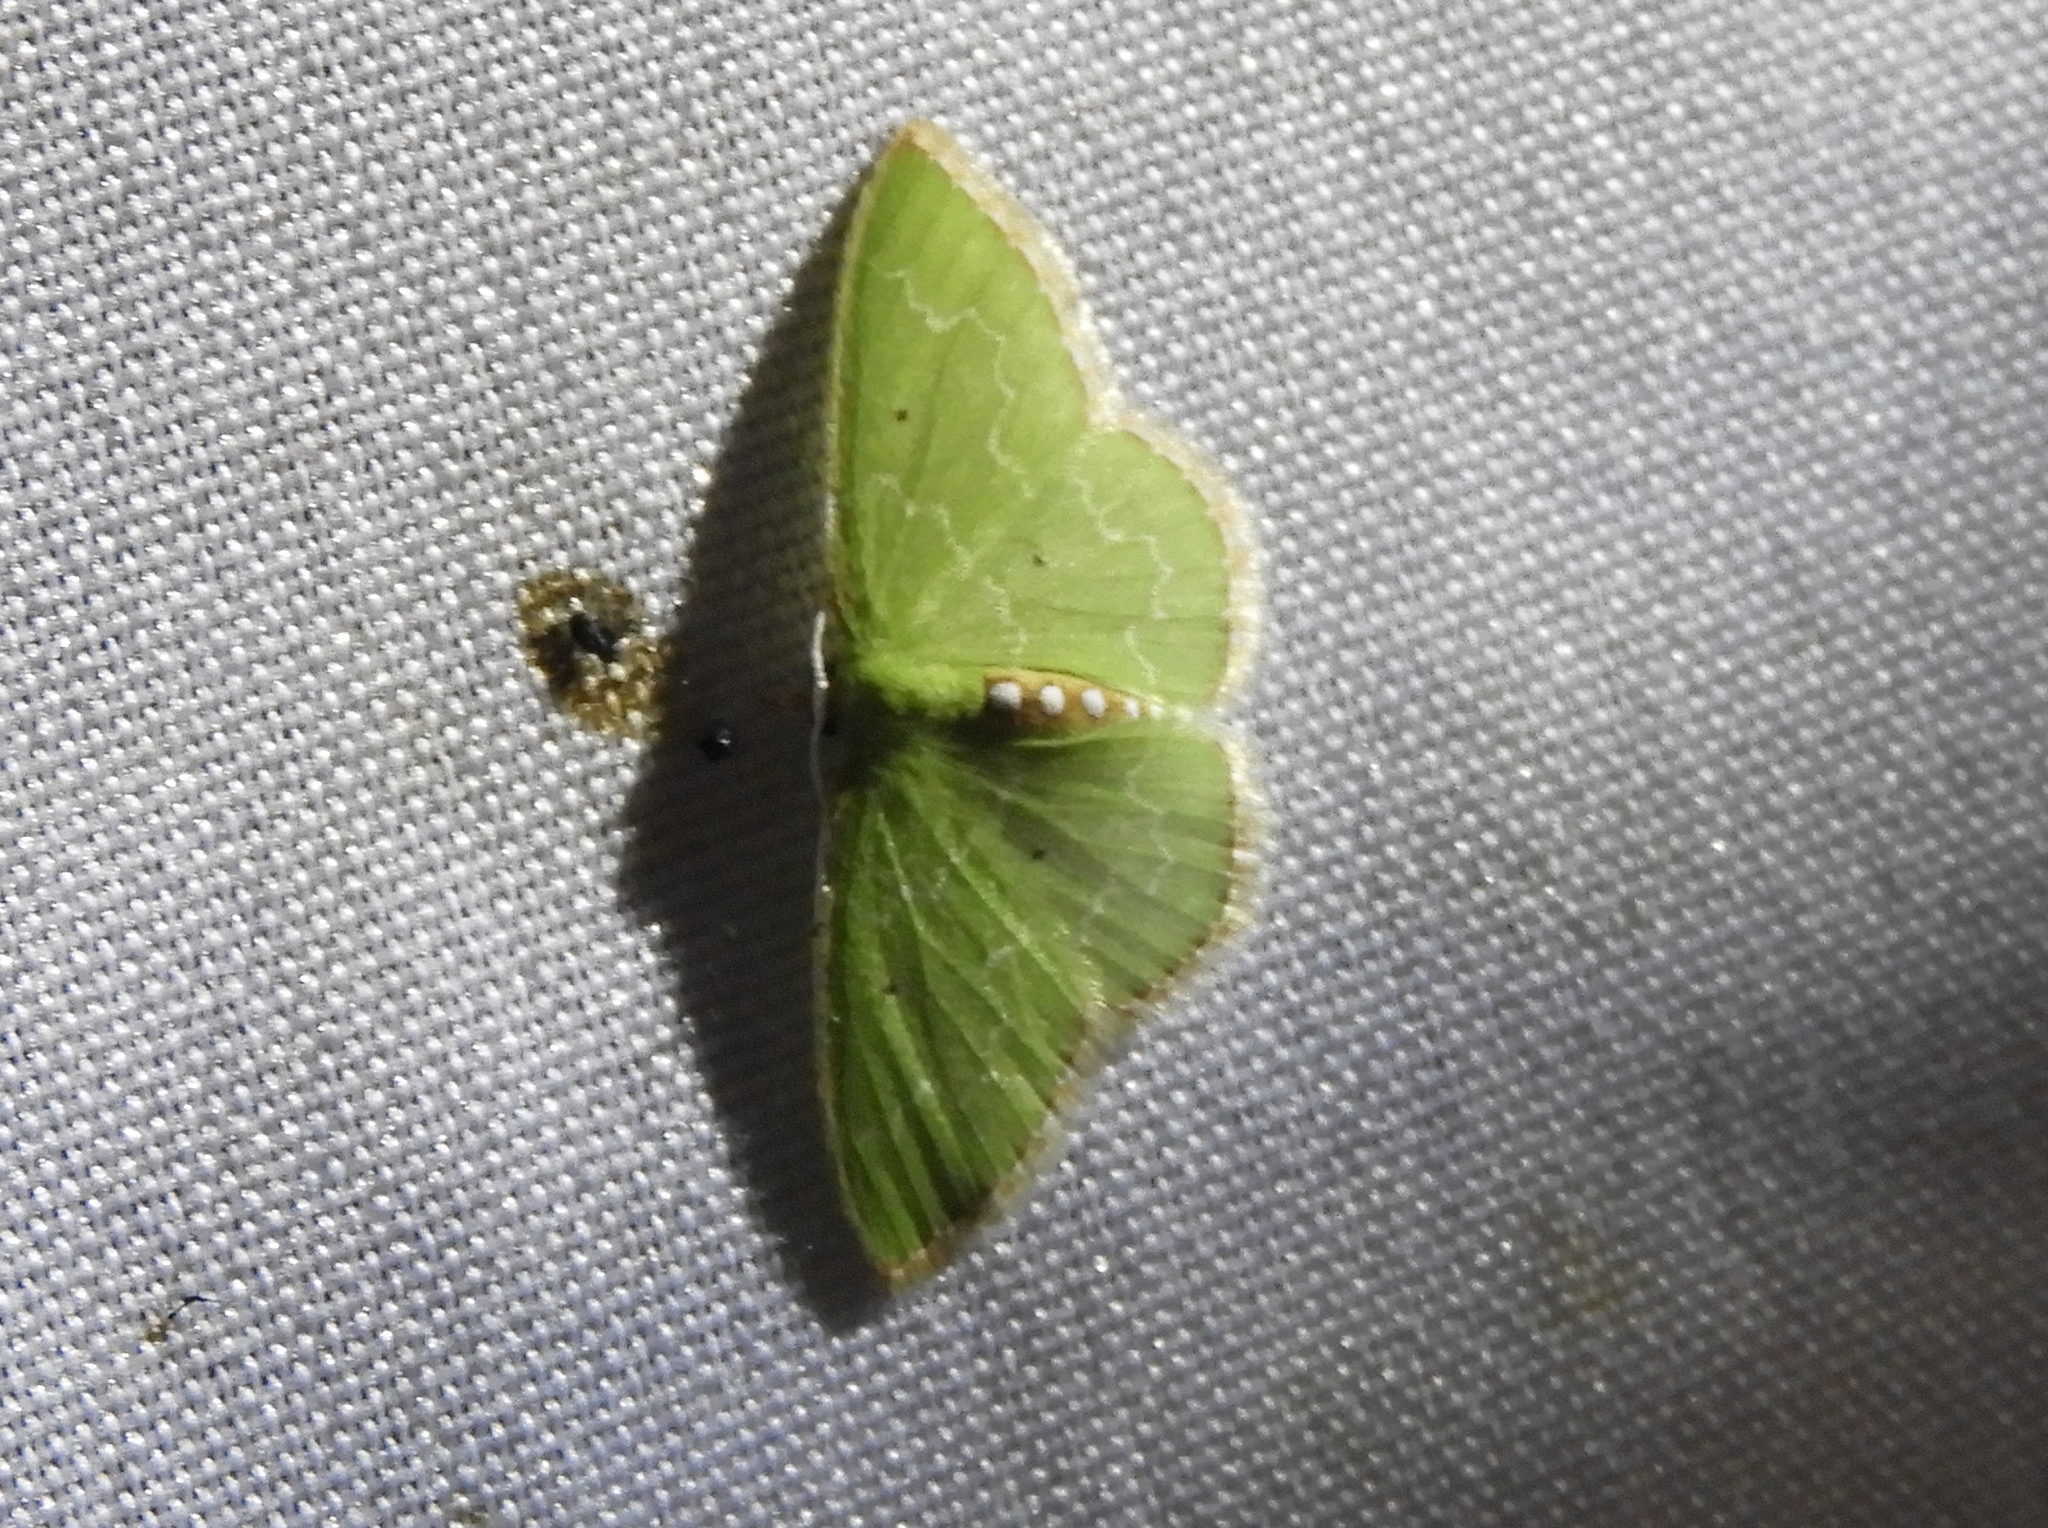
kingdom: Animalia
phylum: Arthropoda
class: Insecta
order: Lepidoptera
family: Geometridae
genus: Nemoria
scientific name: Nemoria
